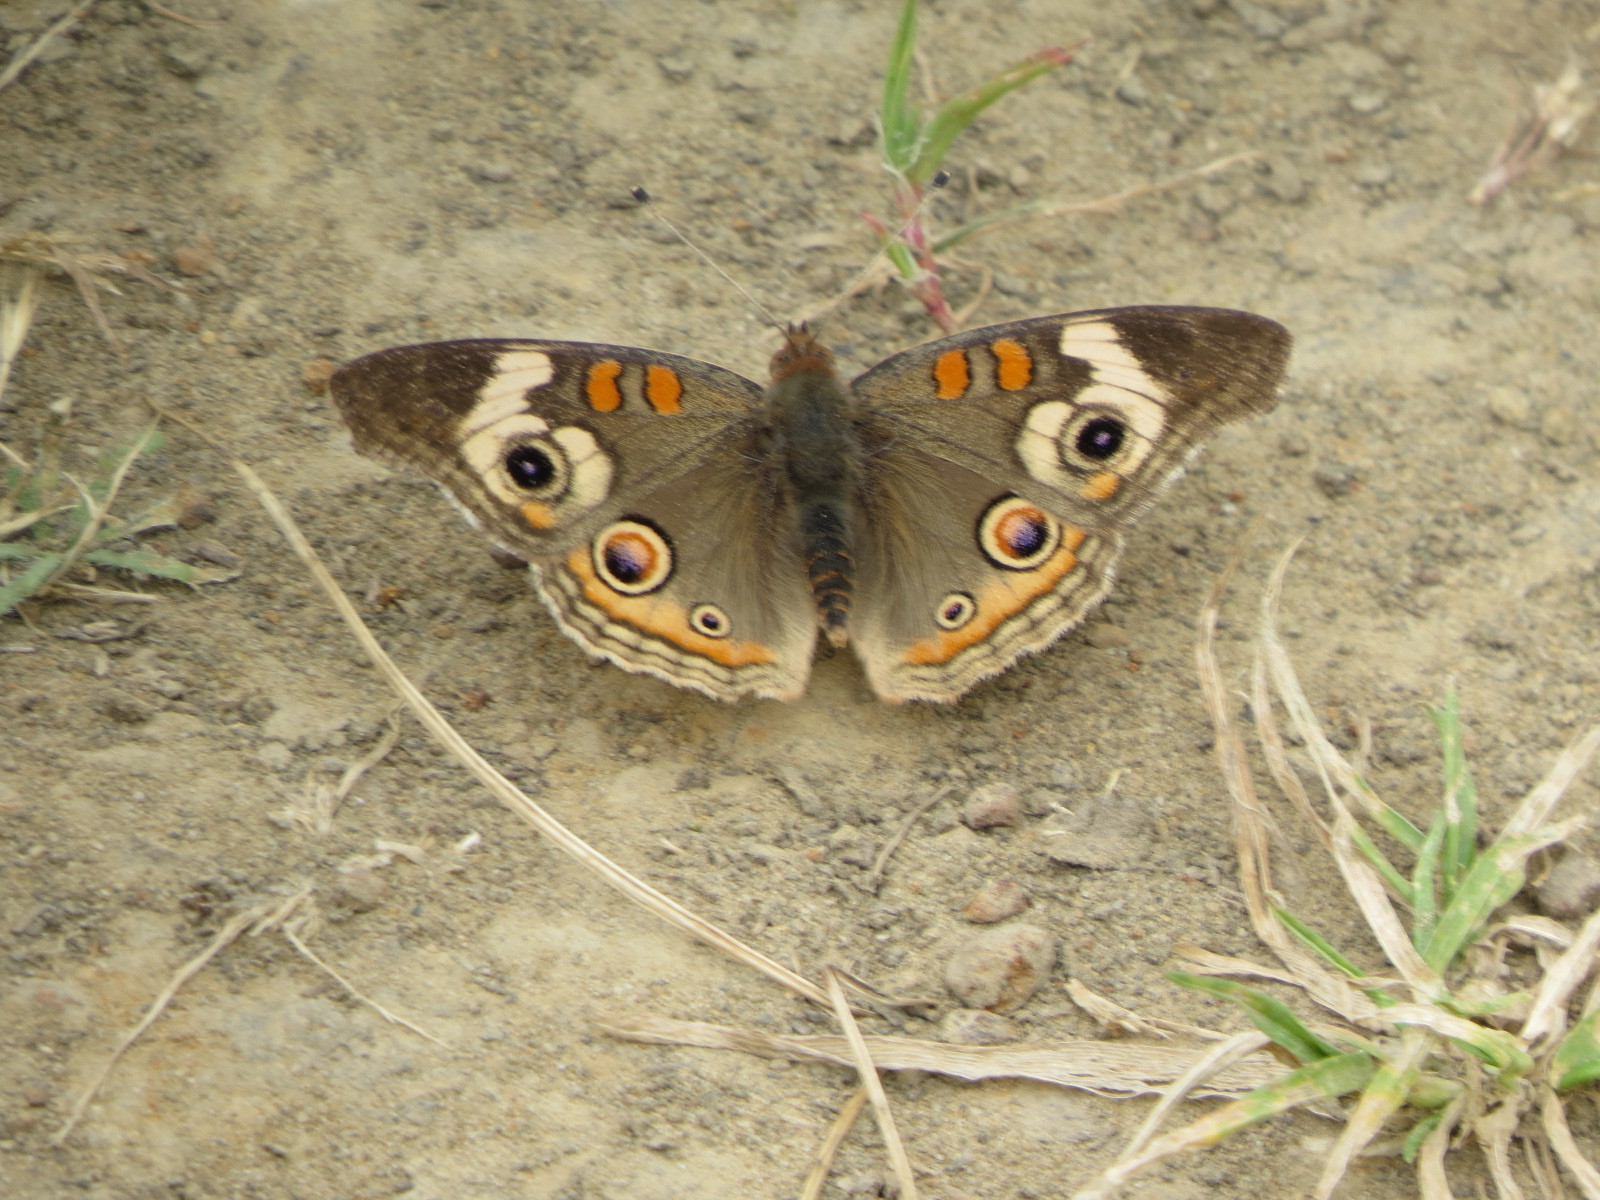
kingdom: Animalia
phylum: Arthropoda
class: Insecta
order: Lepidoptera
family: Nymphalidae
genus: Junonia
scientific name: Junonia grisea
